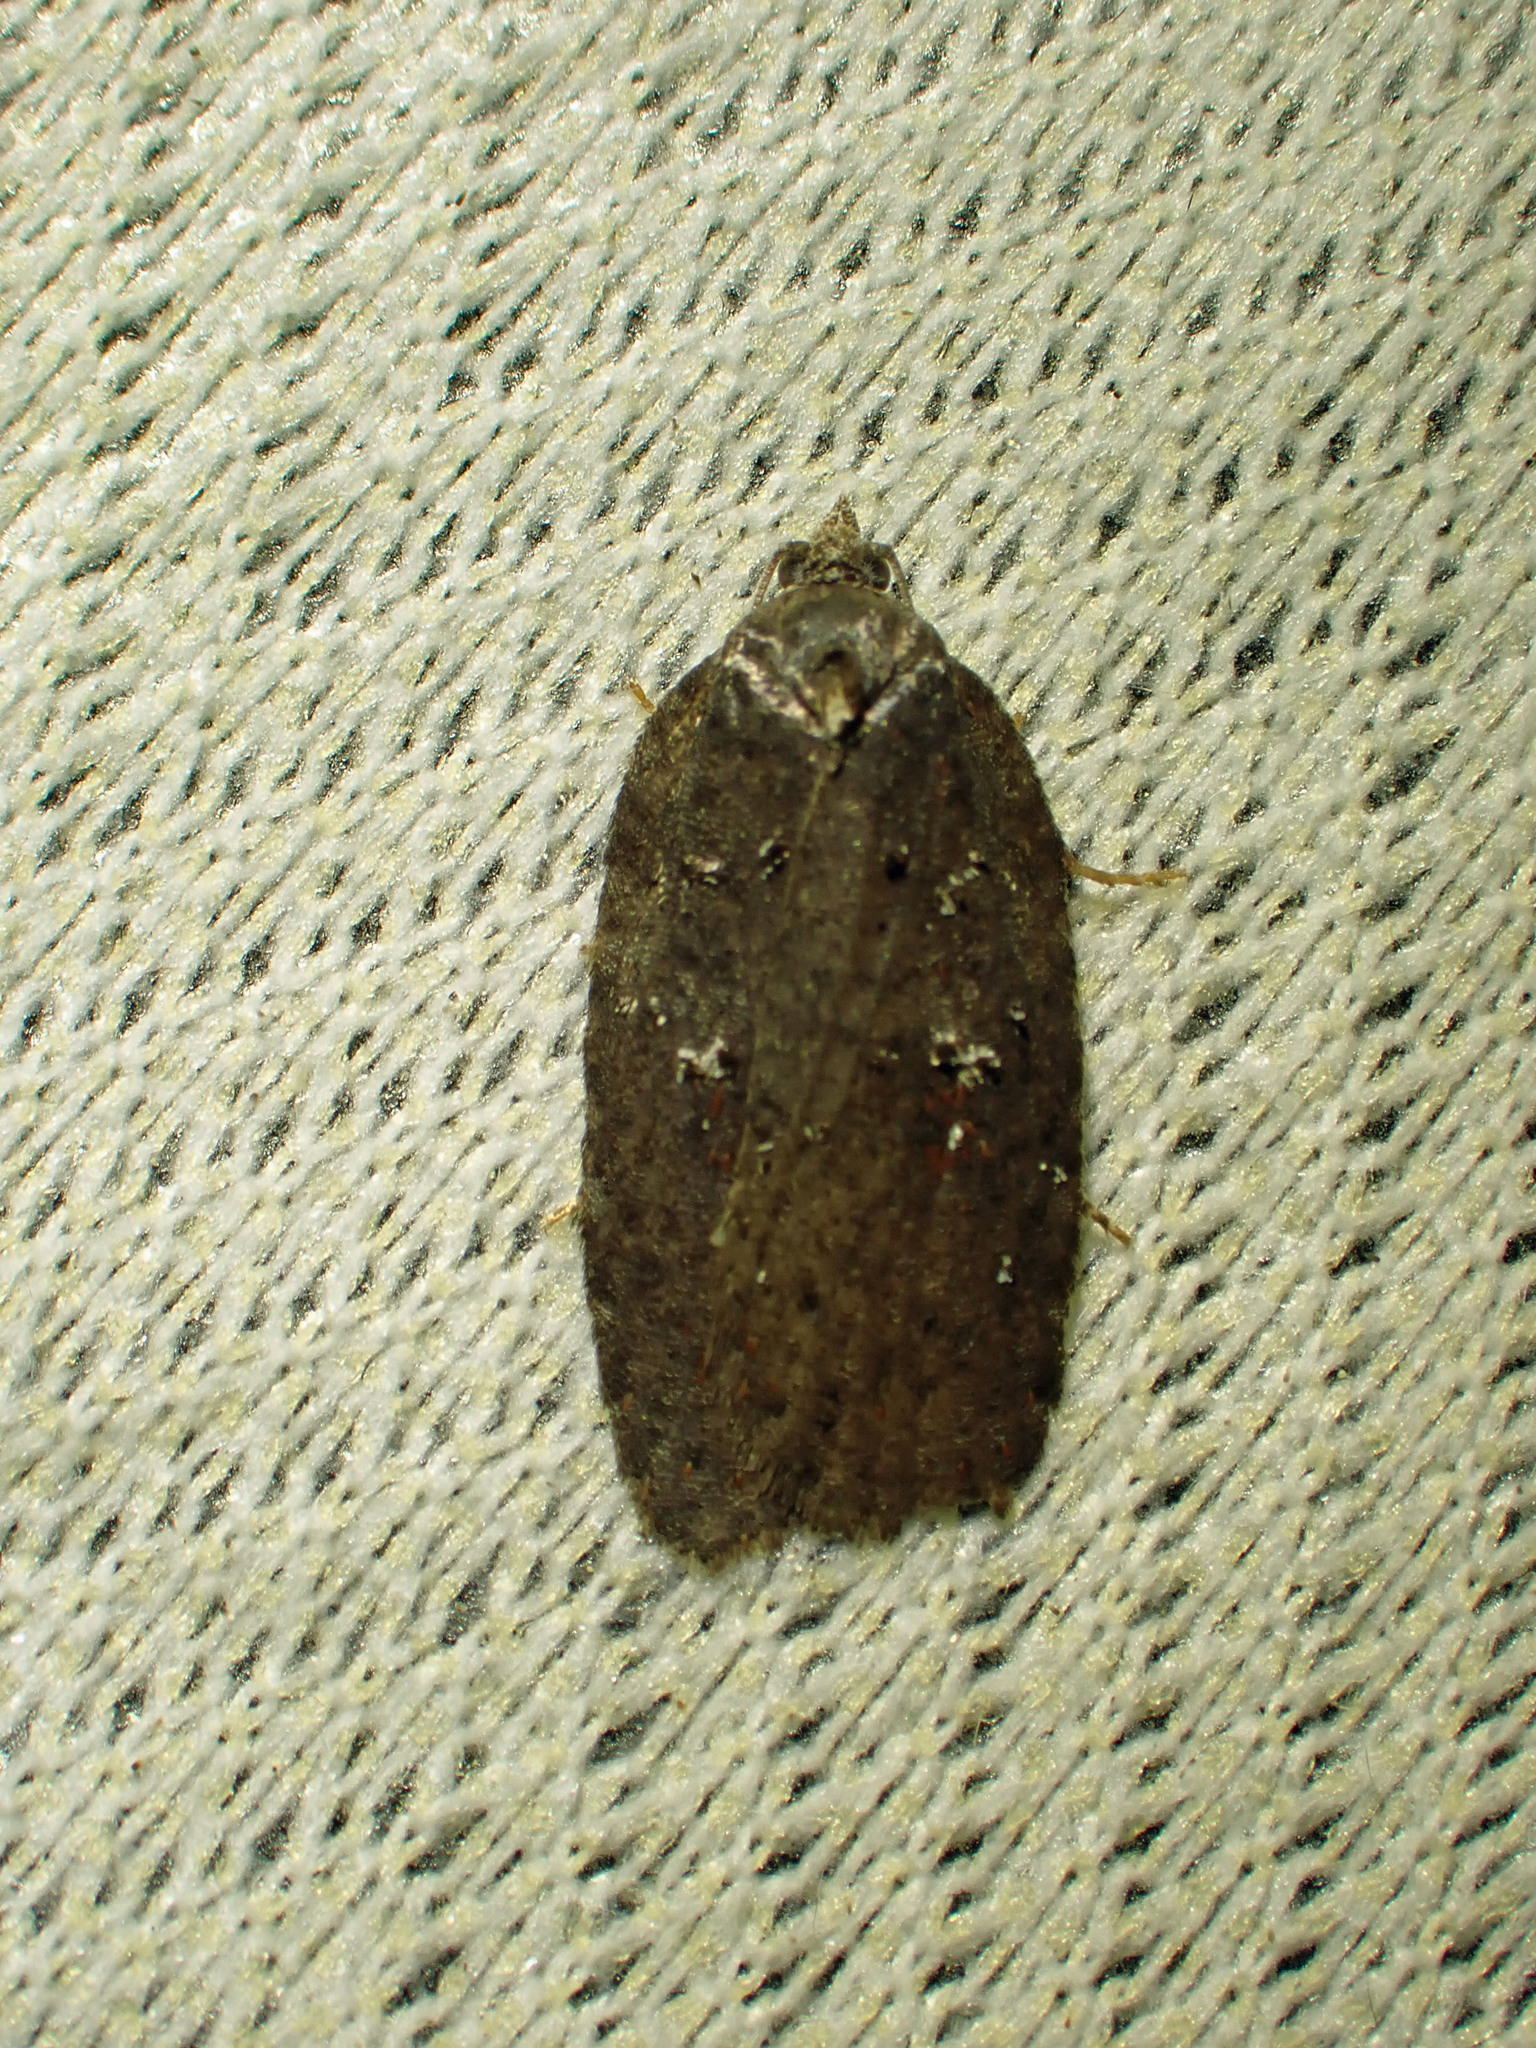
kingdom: Animalia
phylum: Arthropoda
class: Insecta
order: Lepidoptera
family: Tortricidae
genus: Acleris
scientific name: Acleris caliginosana
